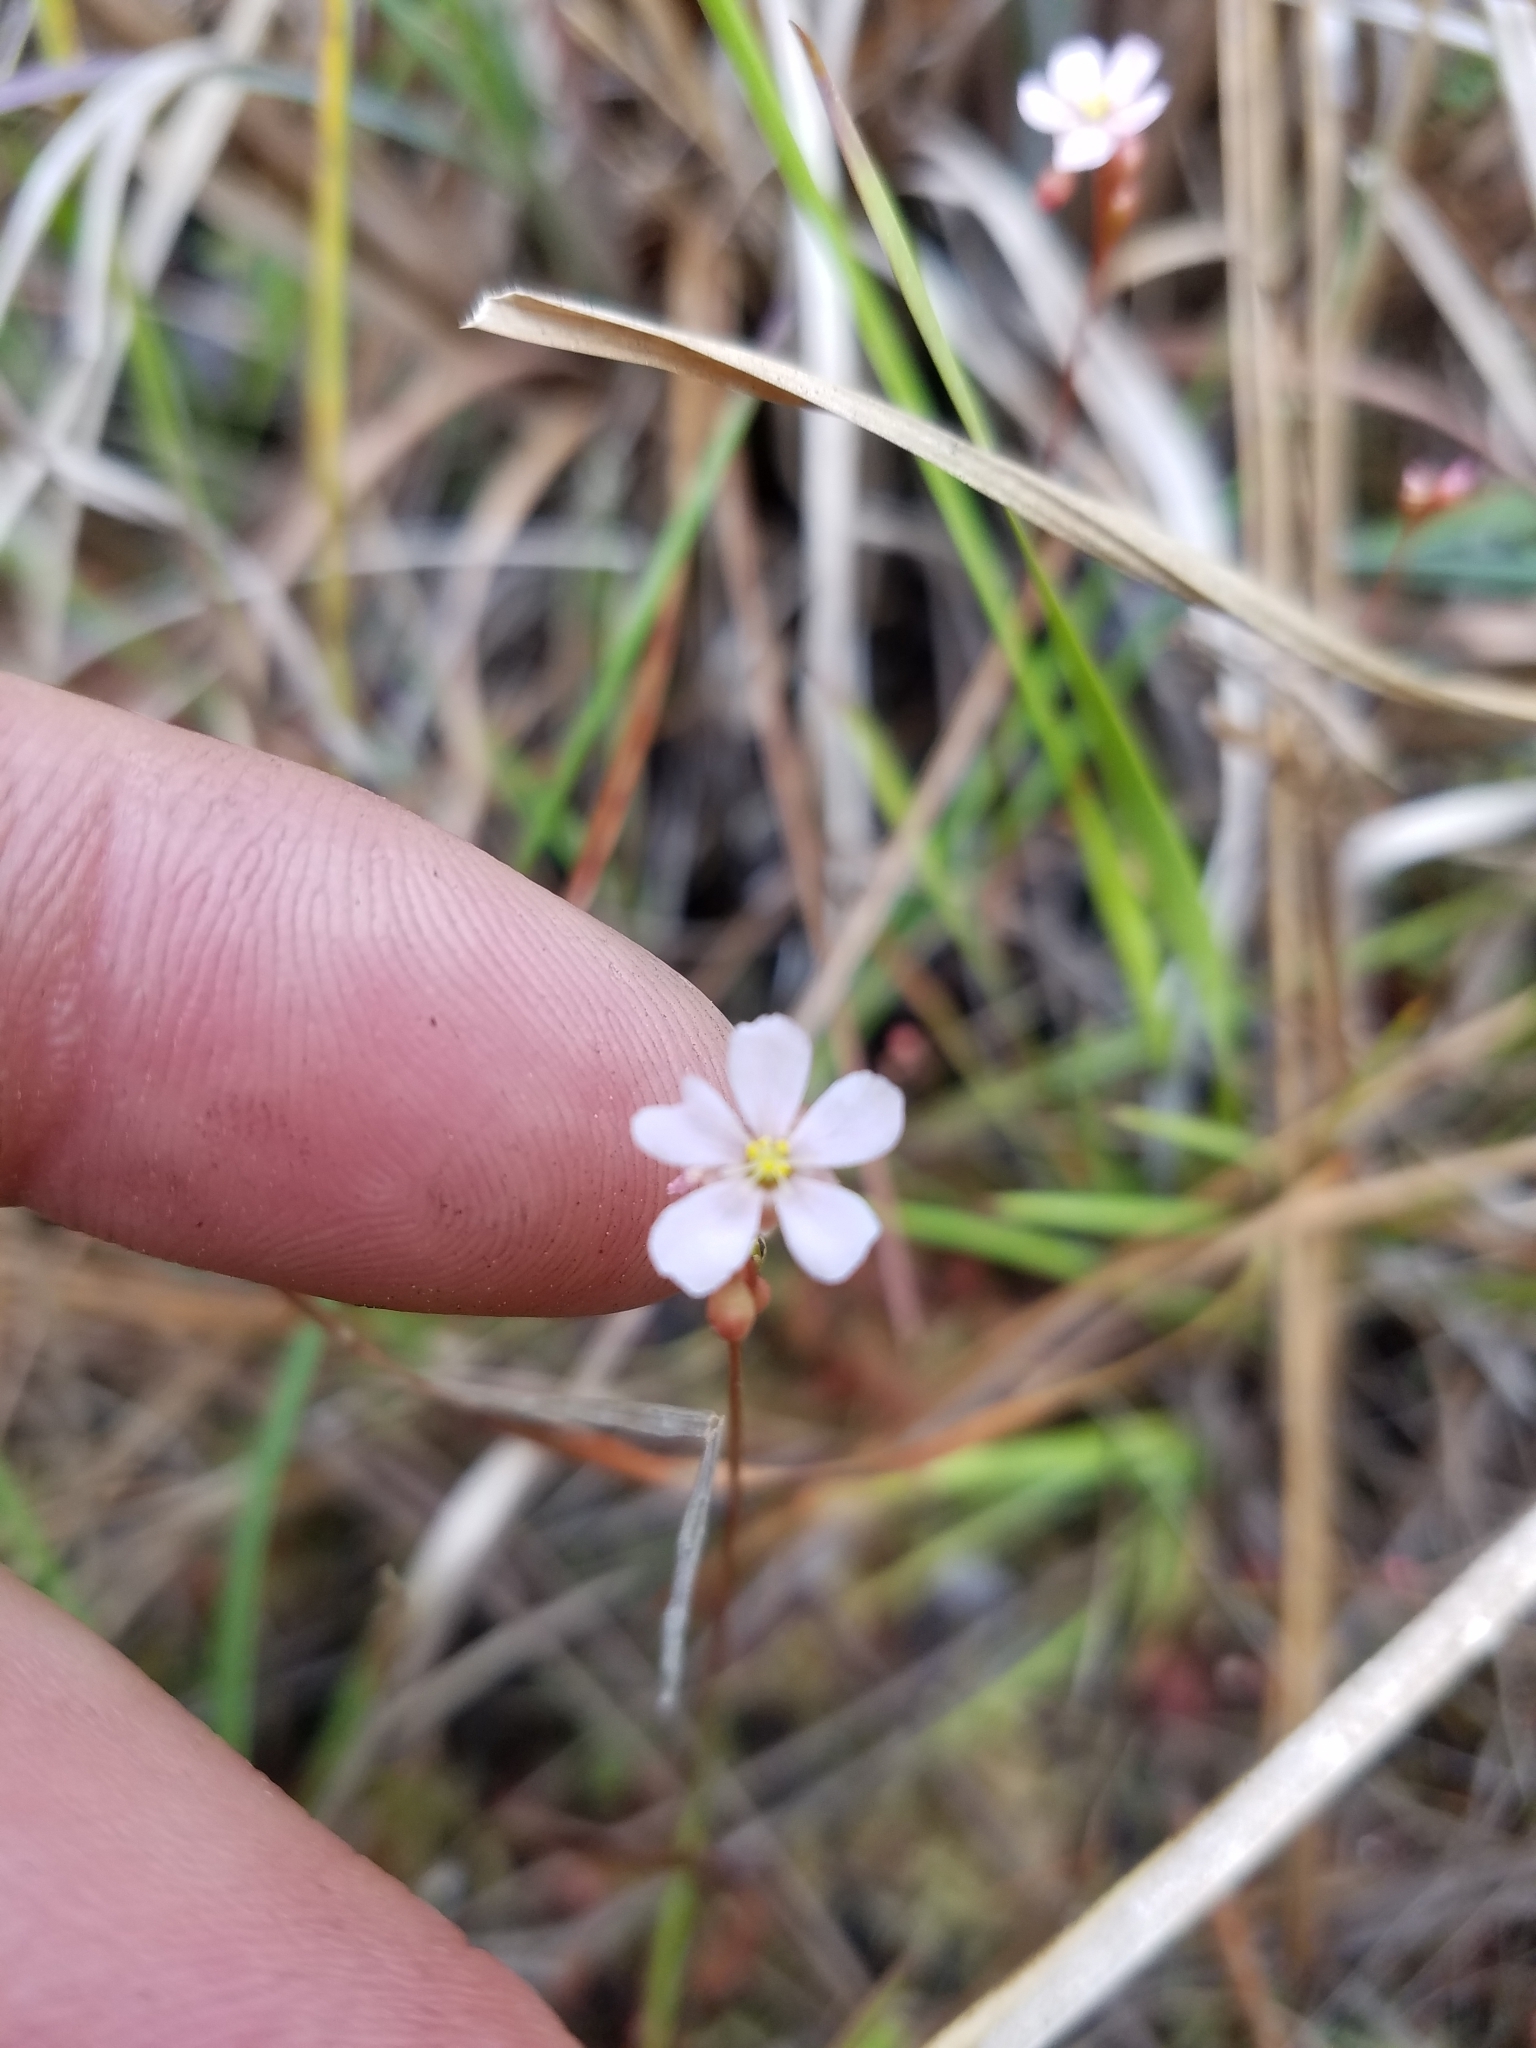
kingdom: Plantae
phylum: Tracheophyta
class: Magnoliopsida
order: Caryophyllales
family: Droseraceae
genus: Drosera
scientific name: Drosera capillaris
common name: Pink sundew
